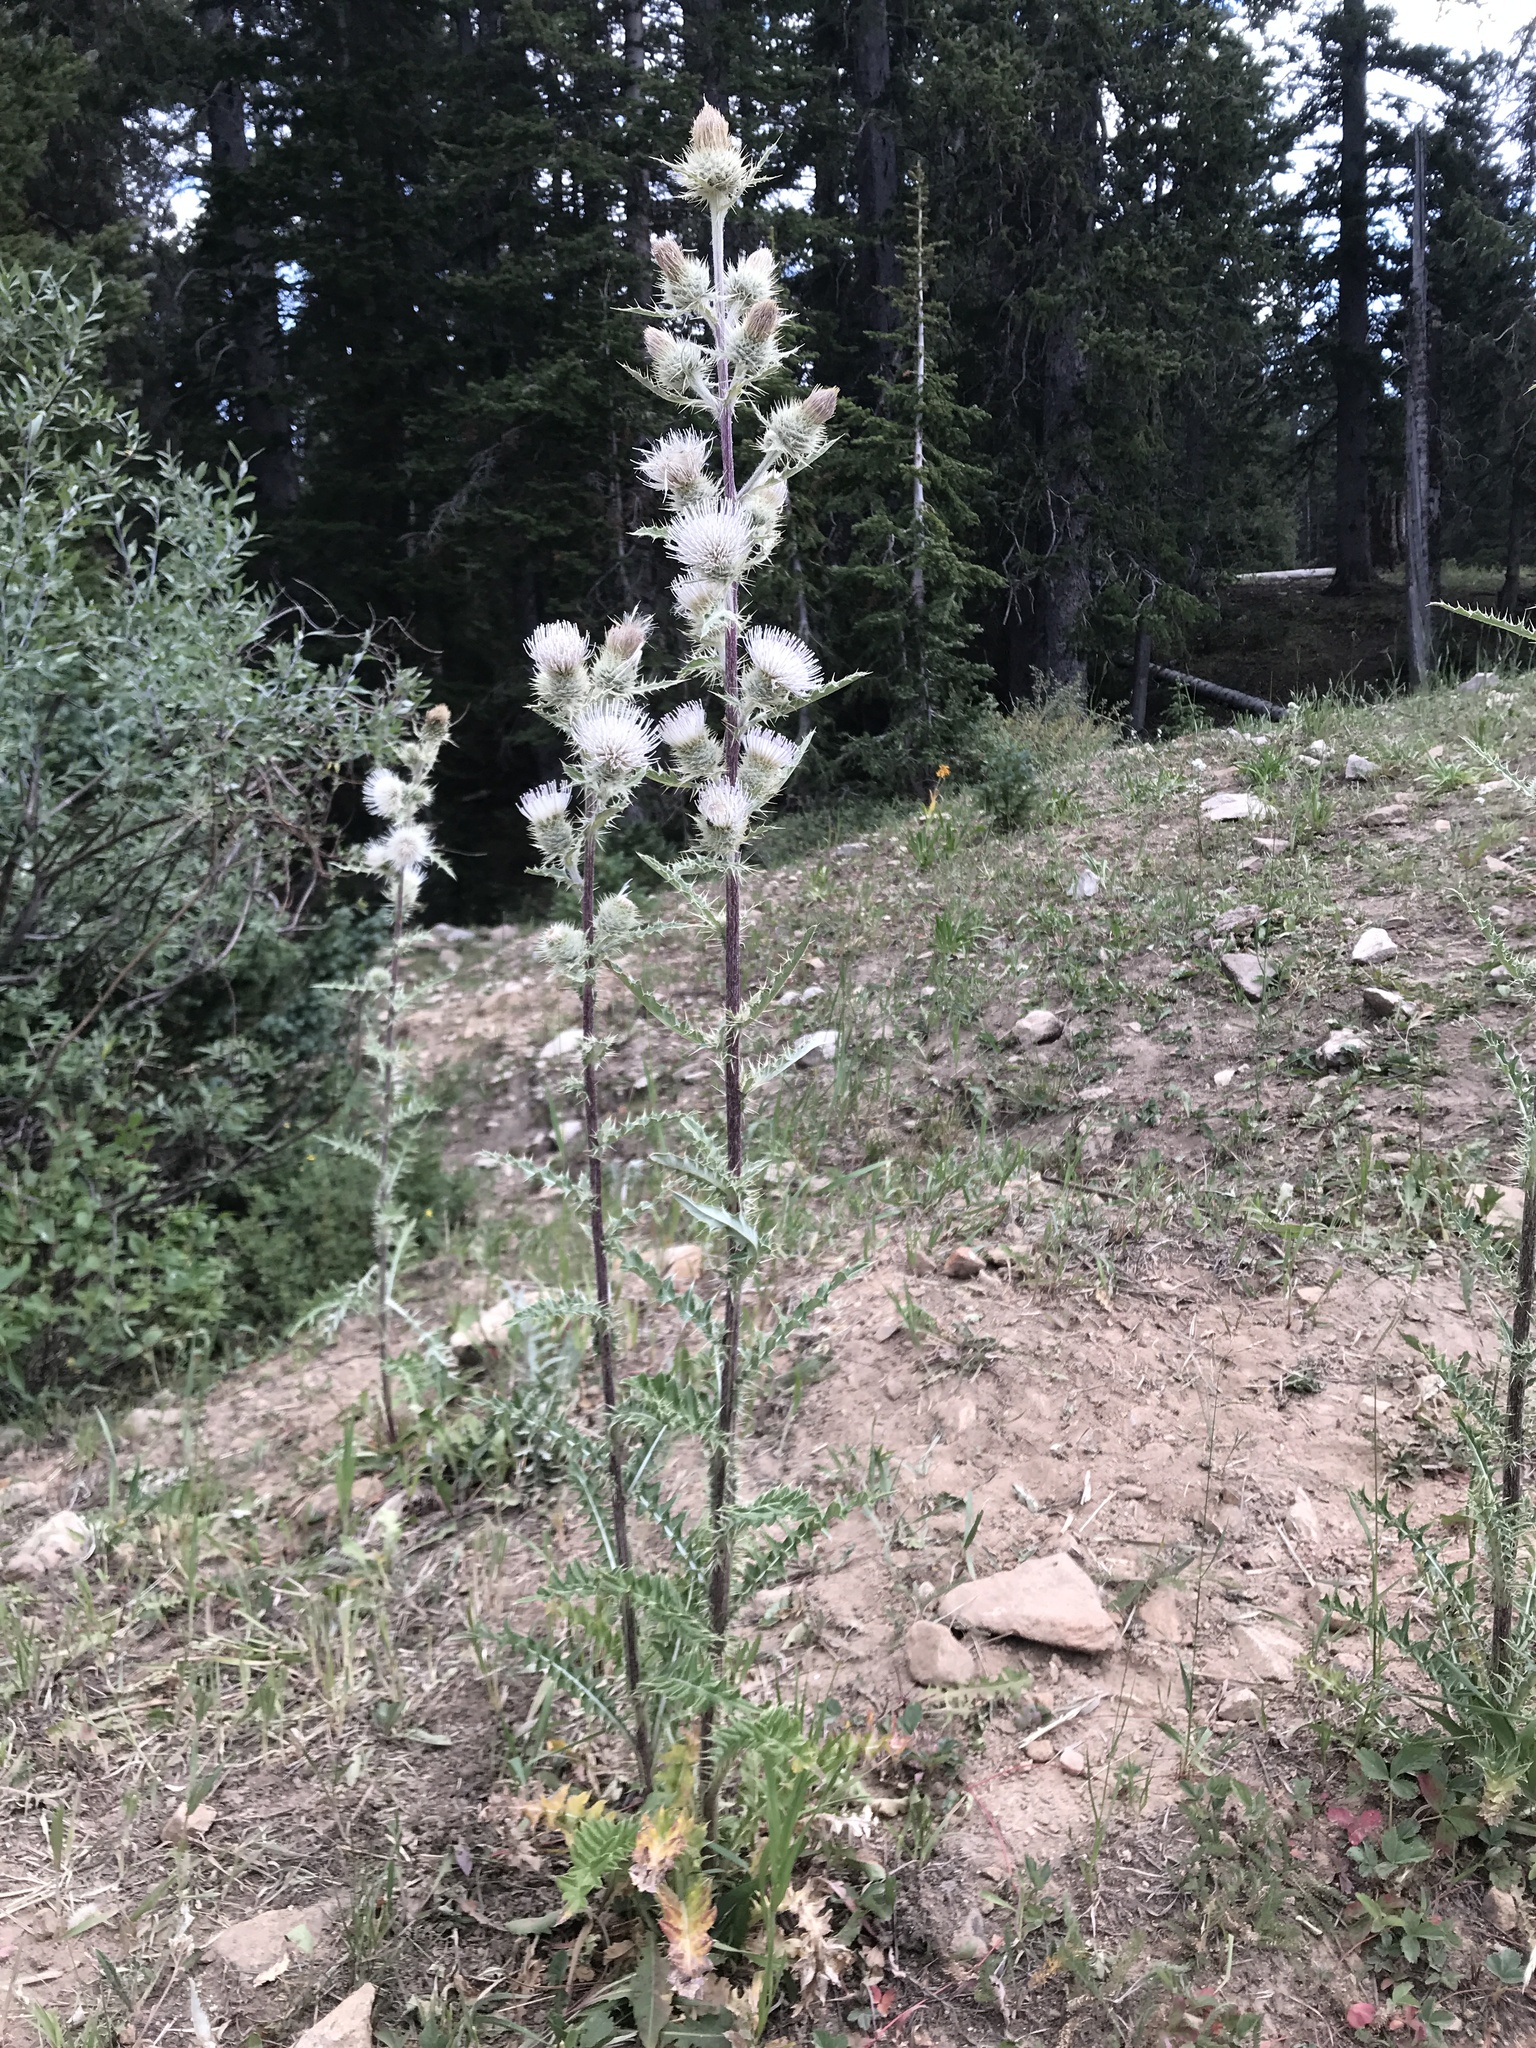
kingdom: Plantae
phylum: Tracheophyta
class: Magnoliopsida
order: Asterales
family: Asteraceae
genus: Cirsium
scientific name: Cirsium
